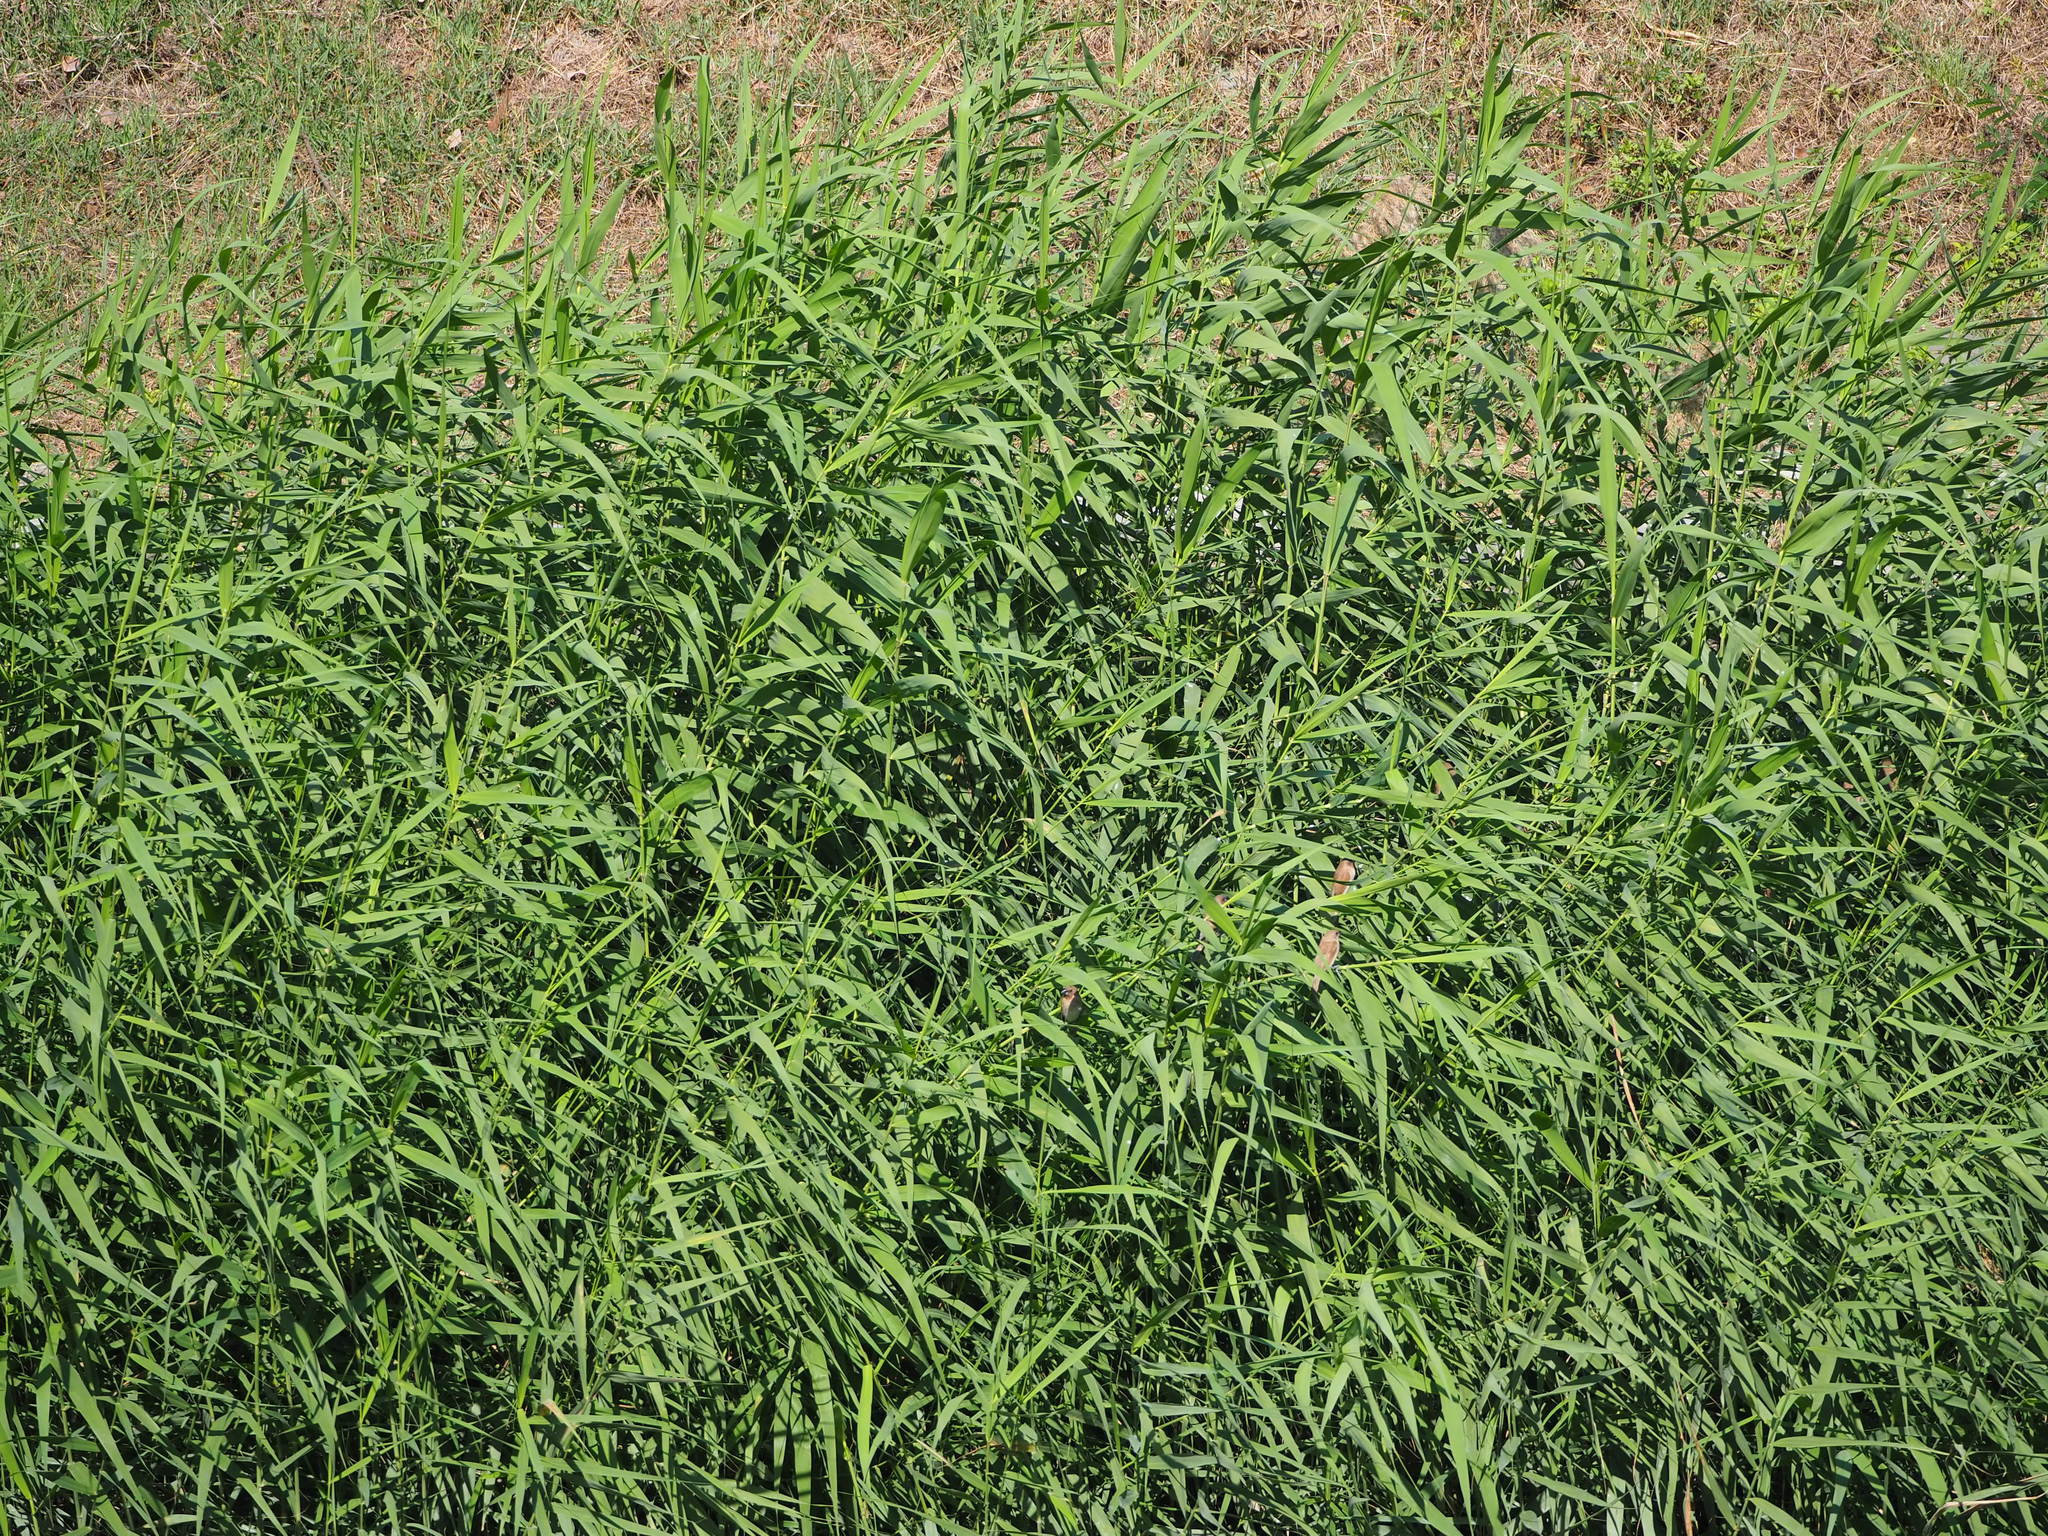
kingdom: Plantae
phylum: Tracheophyta
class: Liliopsida
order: Poales
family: Poaceae
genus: Phragmites
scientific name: Phragmites australis
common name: Common reed
